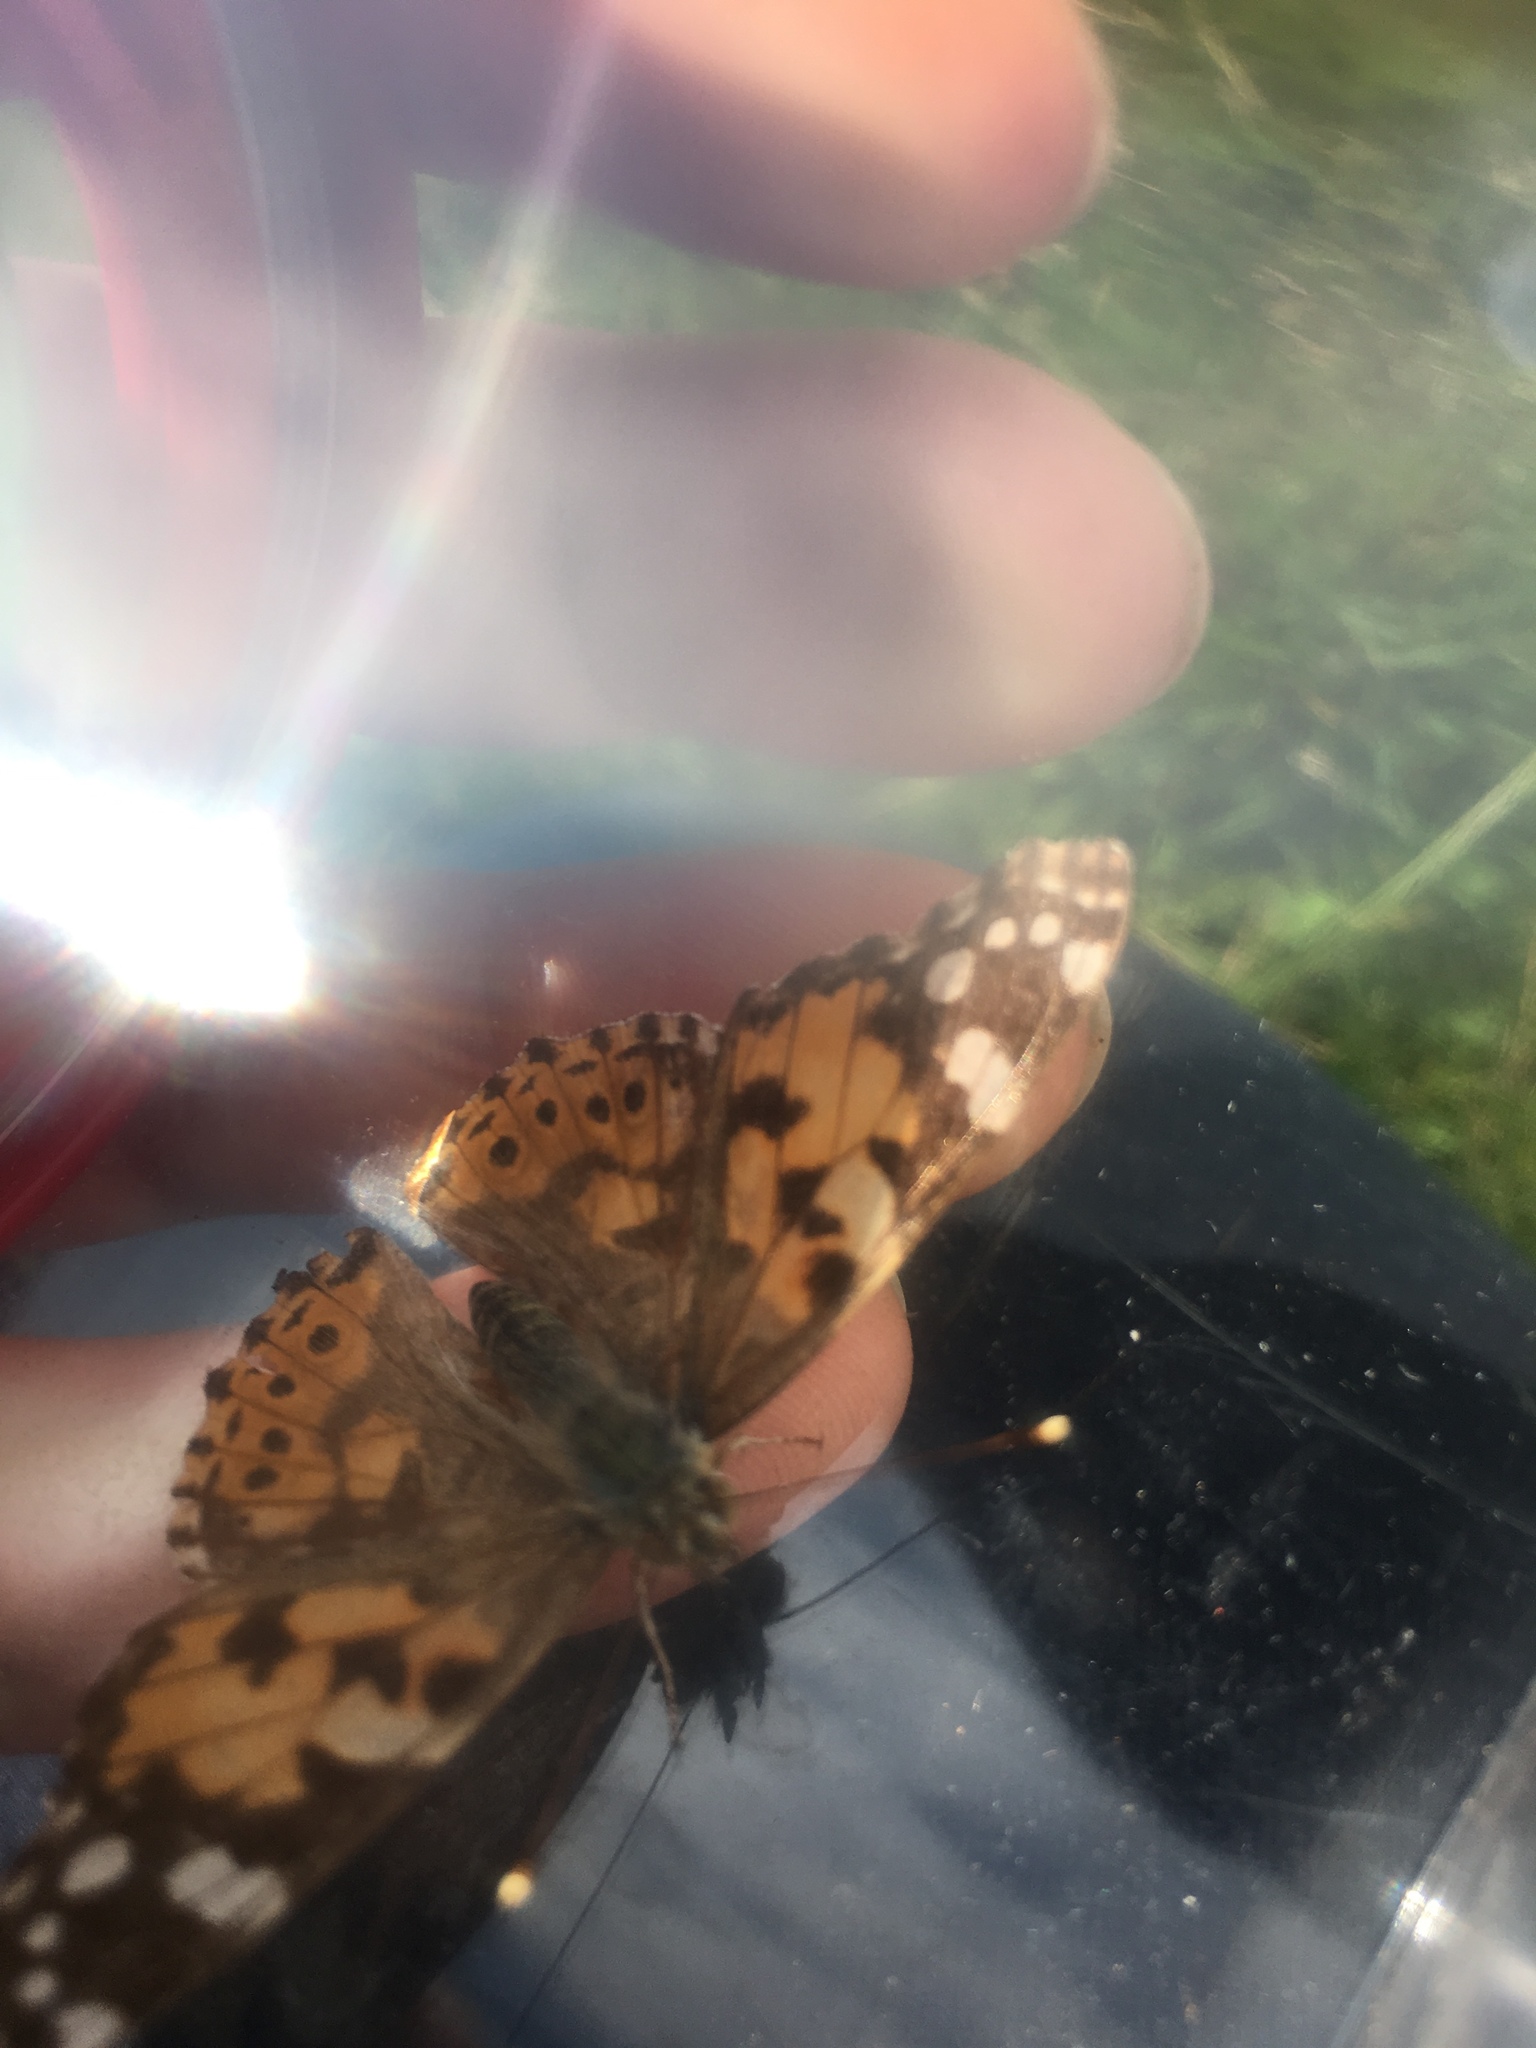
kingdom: Animalia
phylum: Arthropoda
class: Insecta
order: Lepidoptera
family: Nymphalidae
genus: Vanessa
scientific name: Vanessa cardui
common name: Painted lady
